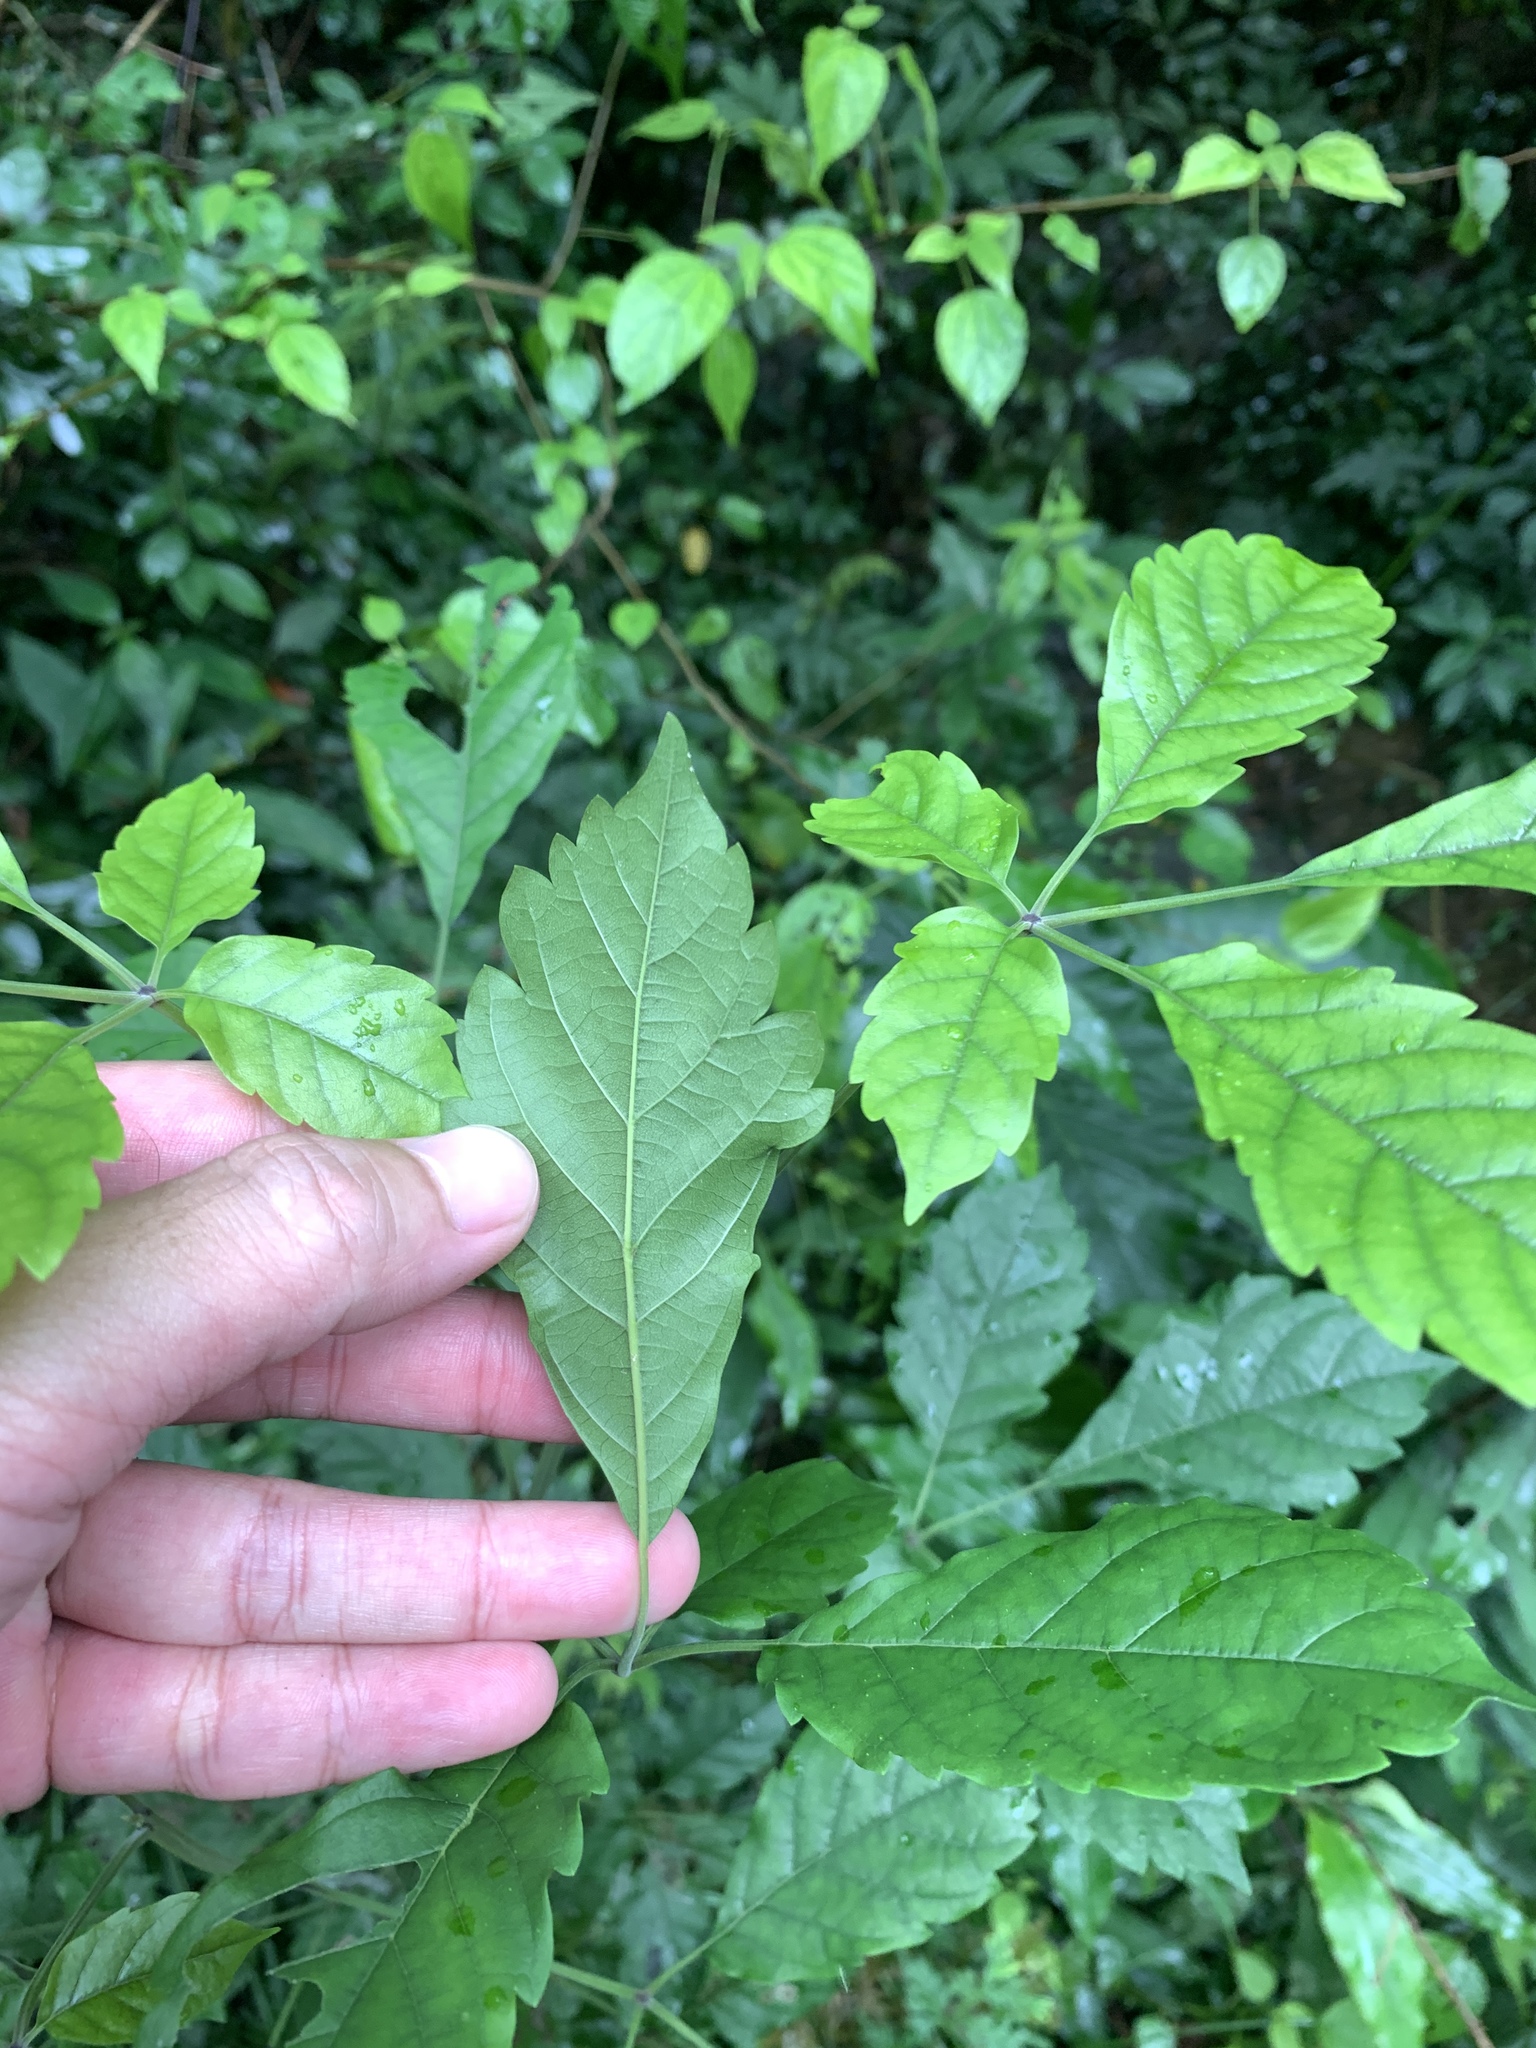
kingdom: Plantae
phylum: Tracheophyta
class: Magnoliopsida
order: Lamiales
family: Lamiaceae
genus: Vitex
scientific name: Vitex quinata
